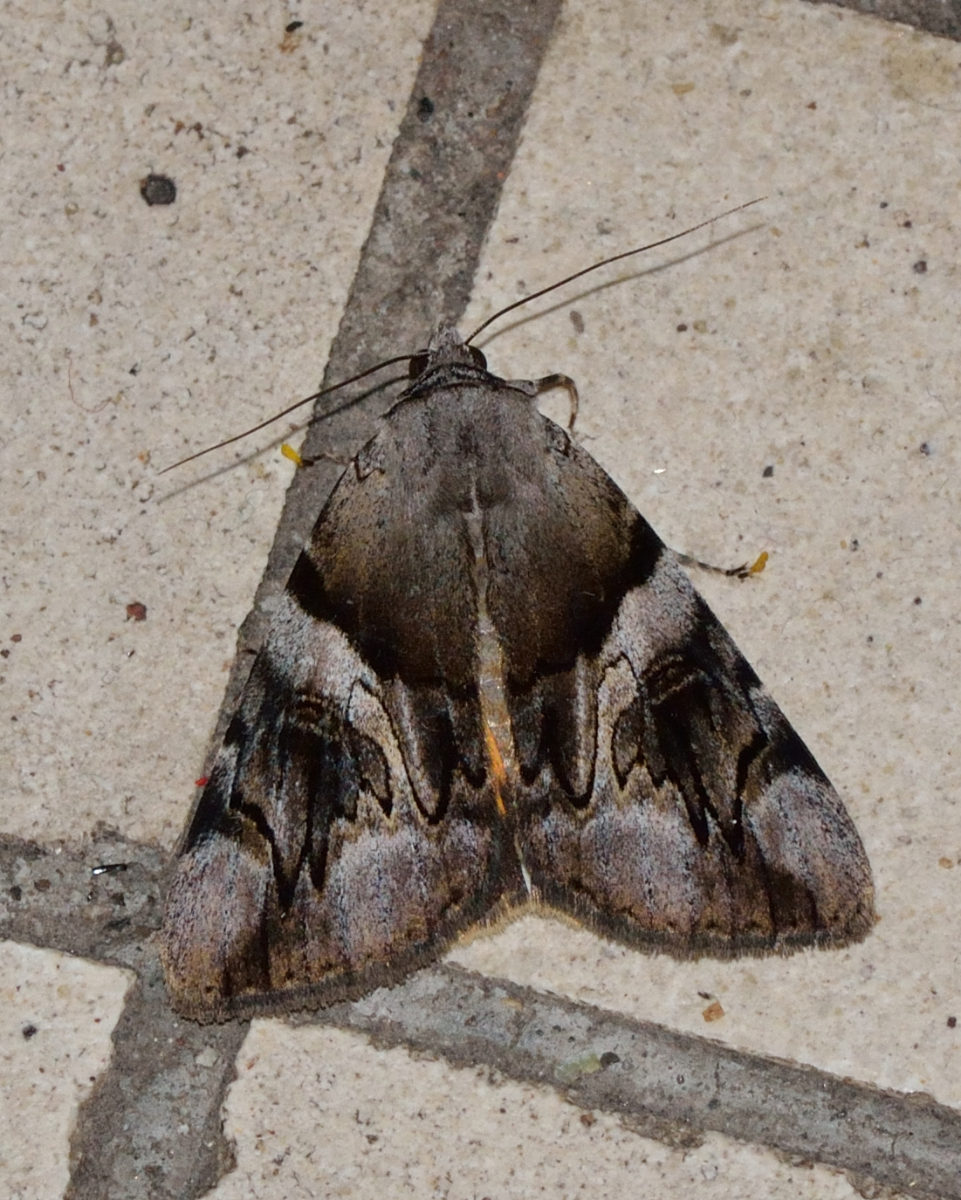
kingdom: Animalia
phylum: Arthropoda
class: Insecta
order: Lepidoptera
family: Erebidae
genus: Catocala
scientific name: Catocala fulminea
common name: Yellow bands underwing
